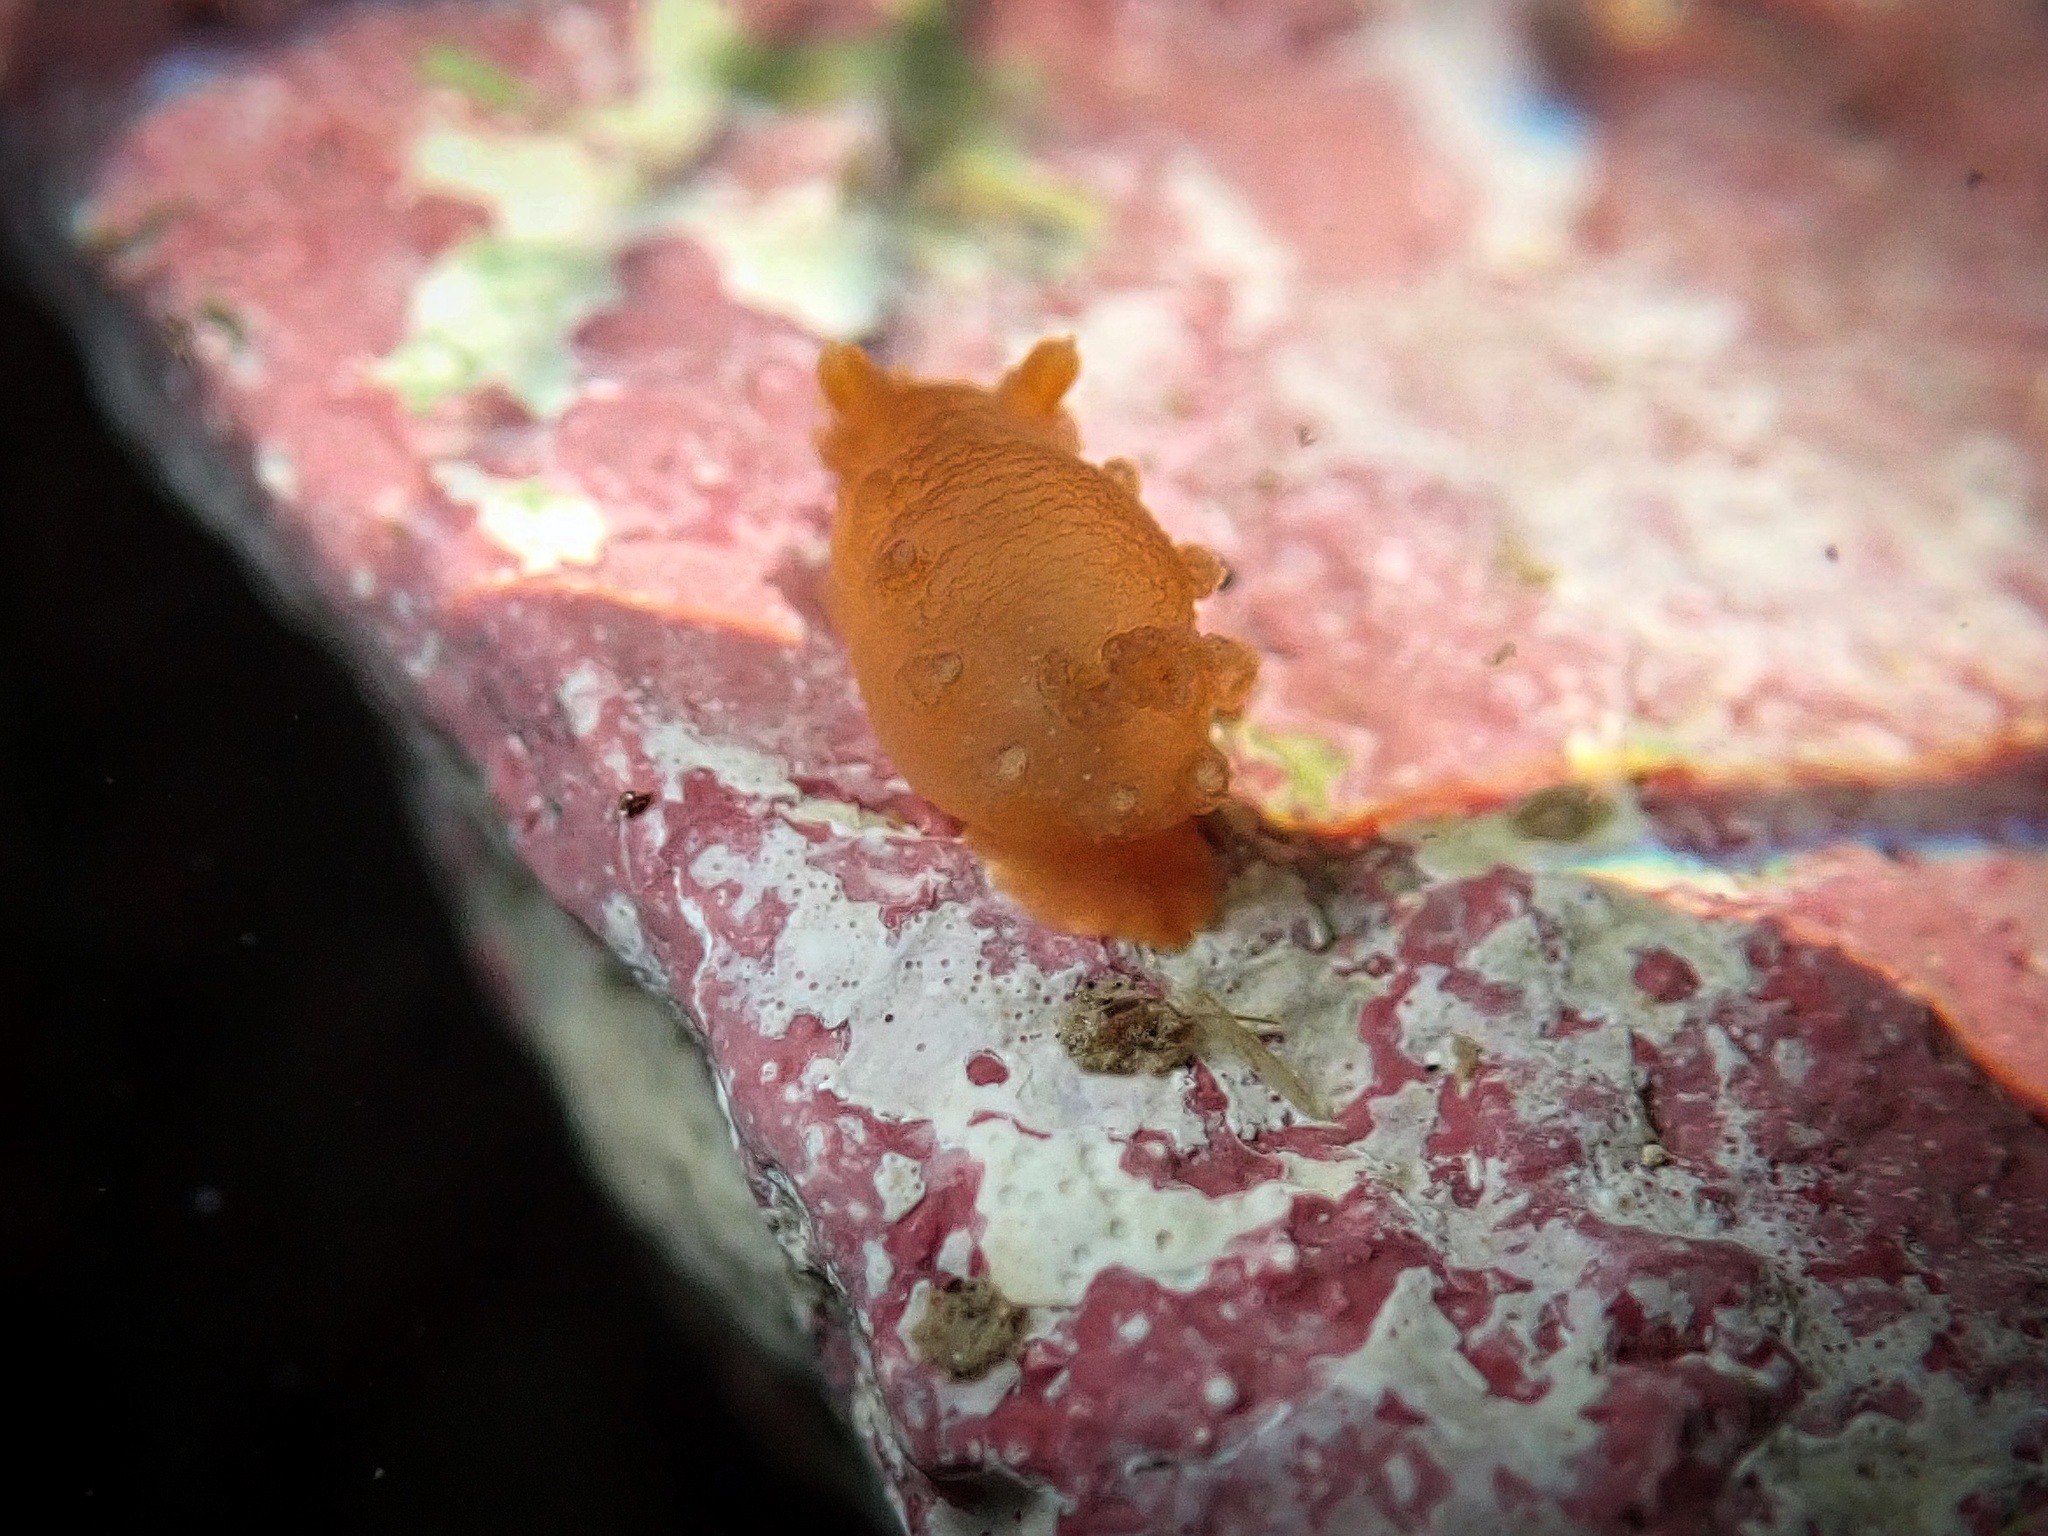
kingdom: Animalia
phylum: Mollusca
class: Gastropoda
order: Nudibranchia
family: Polyceridae
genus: Triopha
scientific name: Triopha maculata
